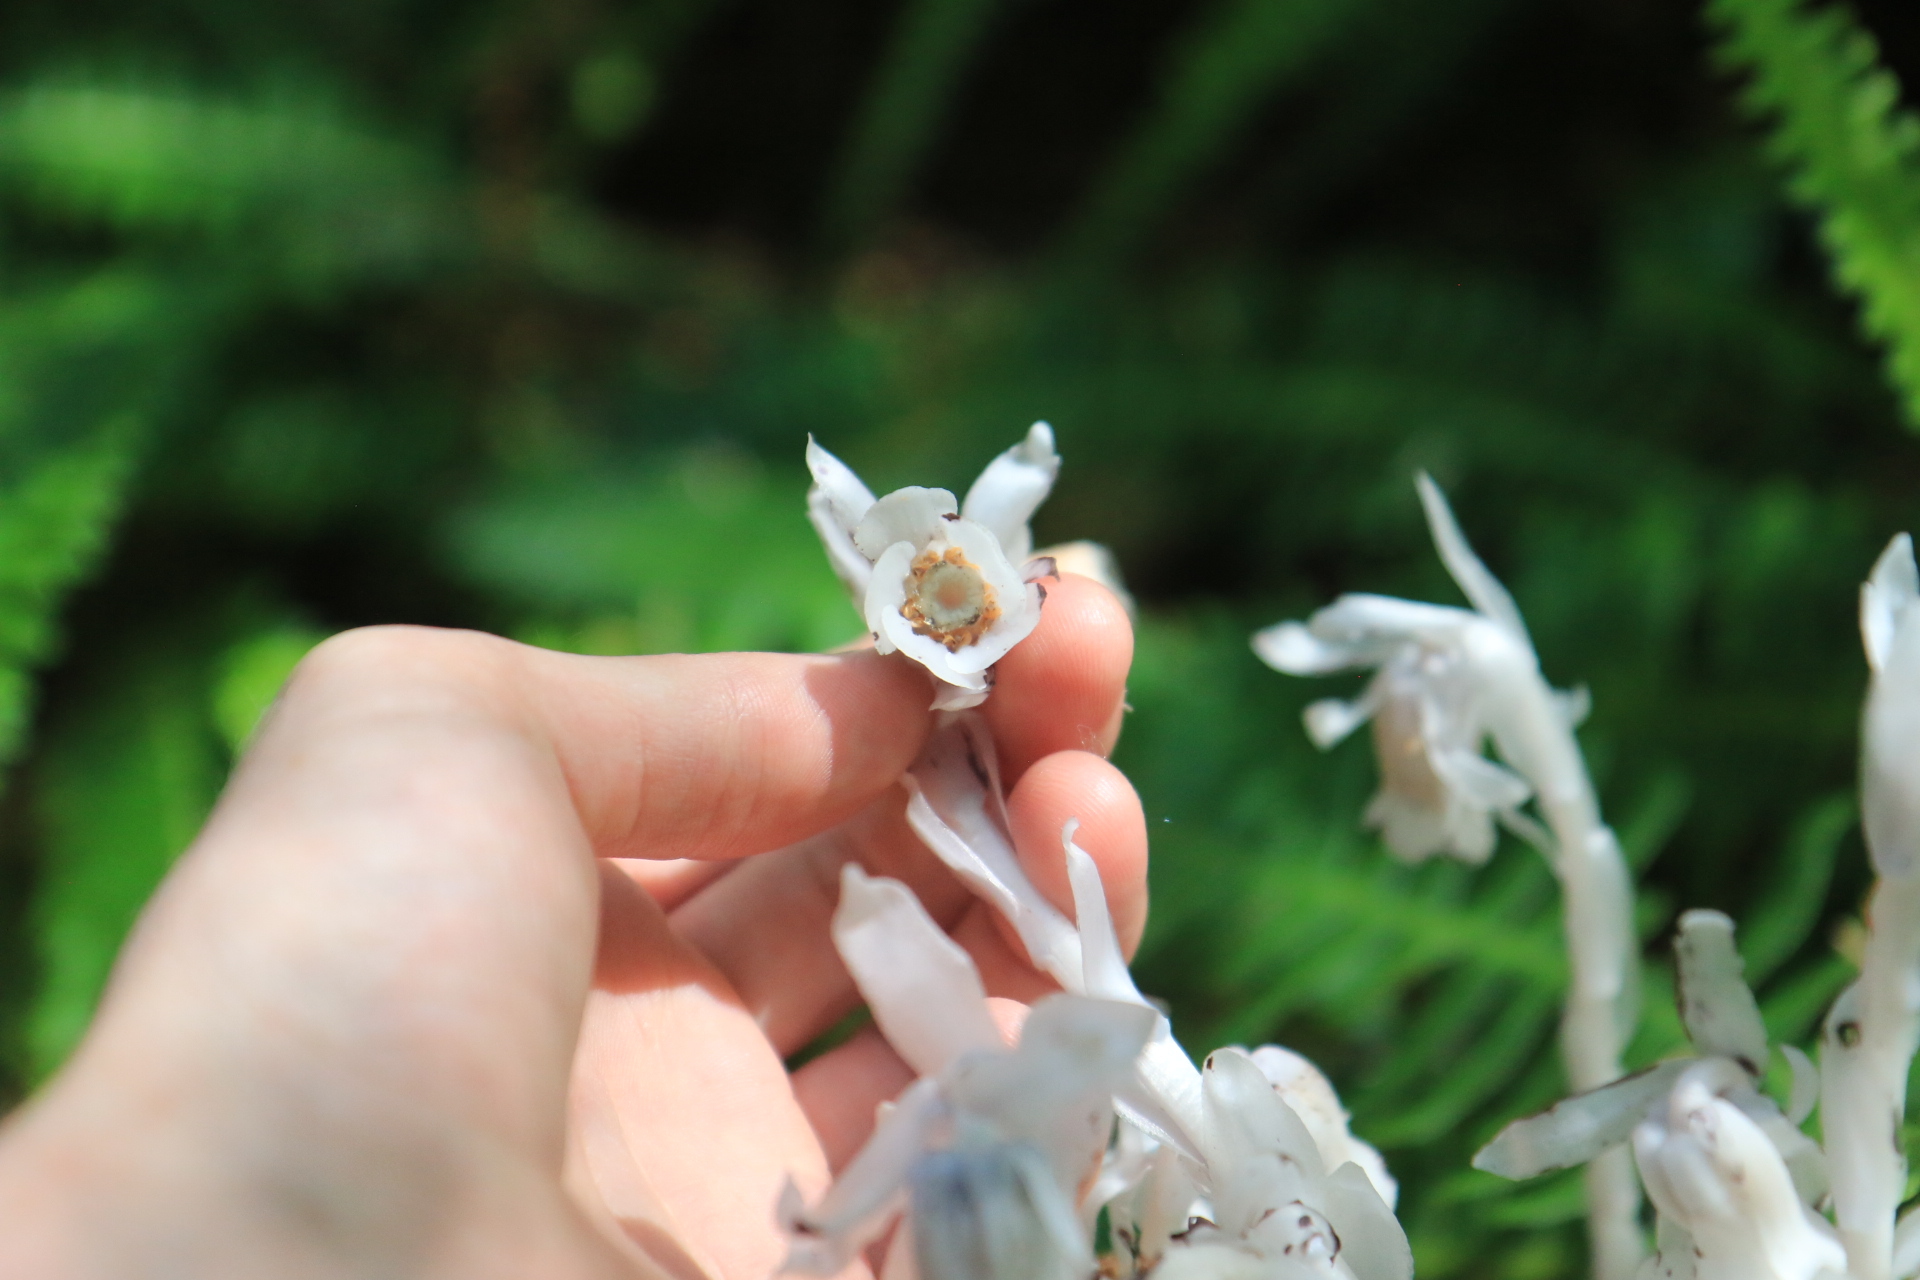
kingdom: Plantae
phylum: Tracheophyta
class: Magnoliopsida
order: Ericales
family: Ericaceae
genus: Monotropa
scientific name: Monotropa uniflora
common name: Convulsion root
